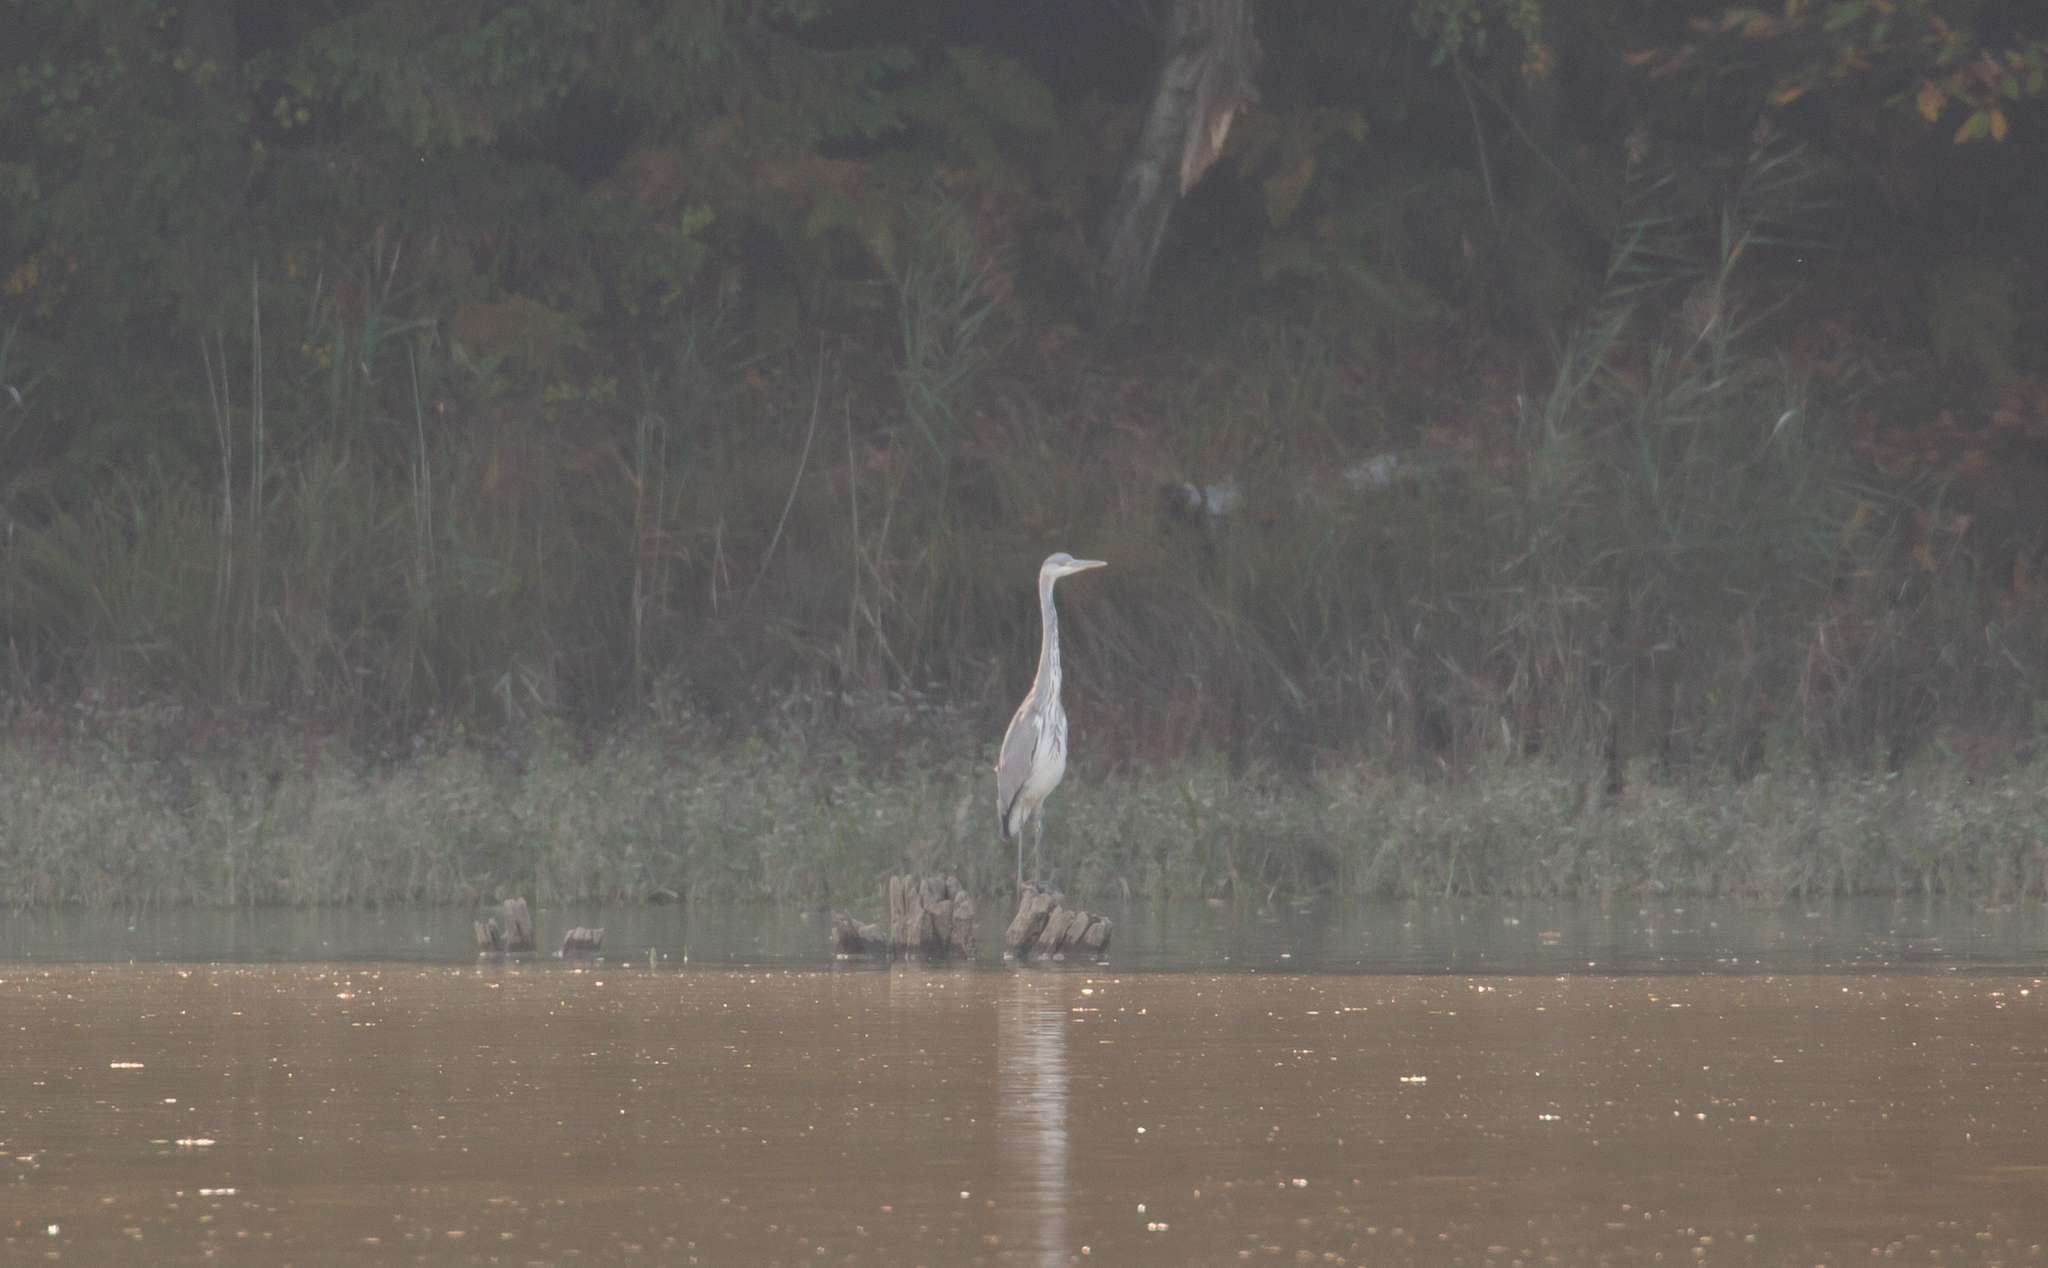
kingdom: Animalia
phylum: Chordata
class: Aves
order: Pelecaniformes
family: Ardeidae
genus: Ardea
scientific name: Ardea cinerea
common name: Grey heron
